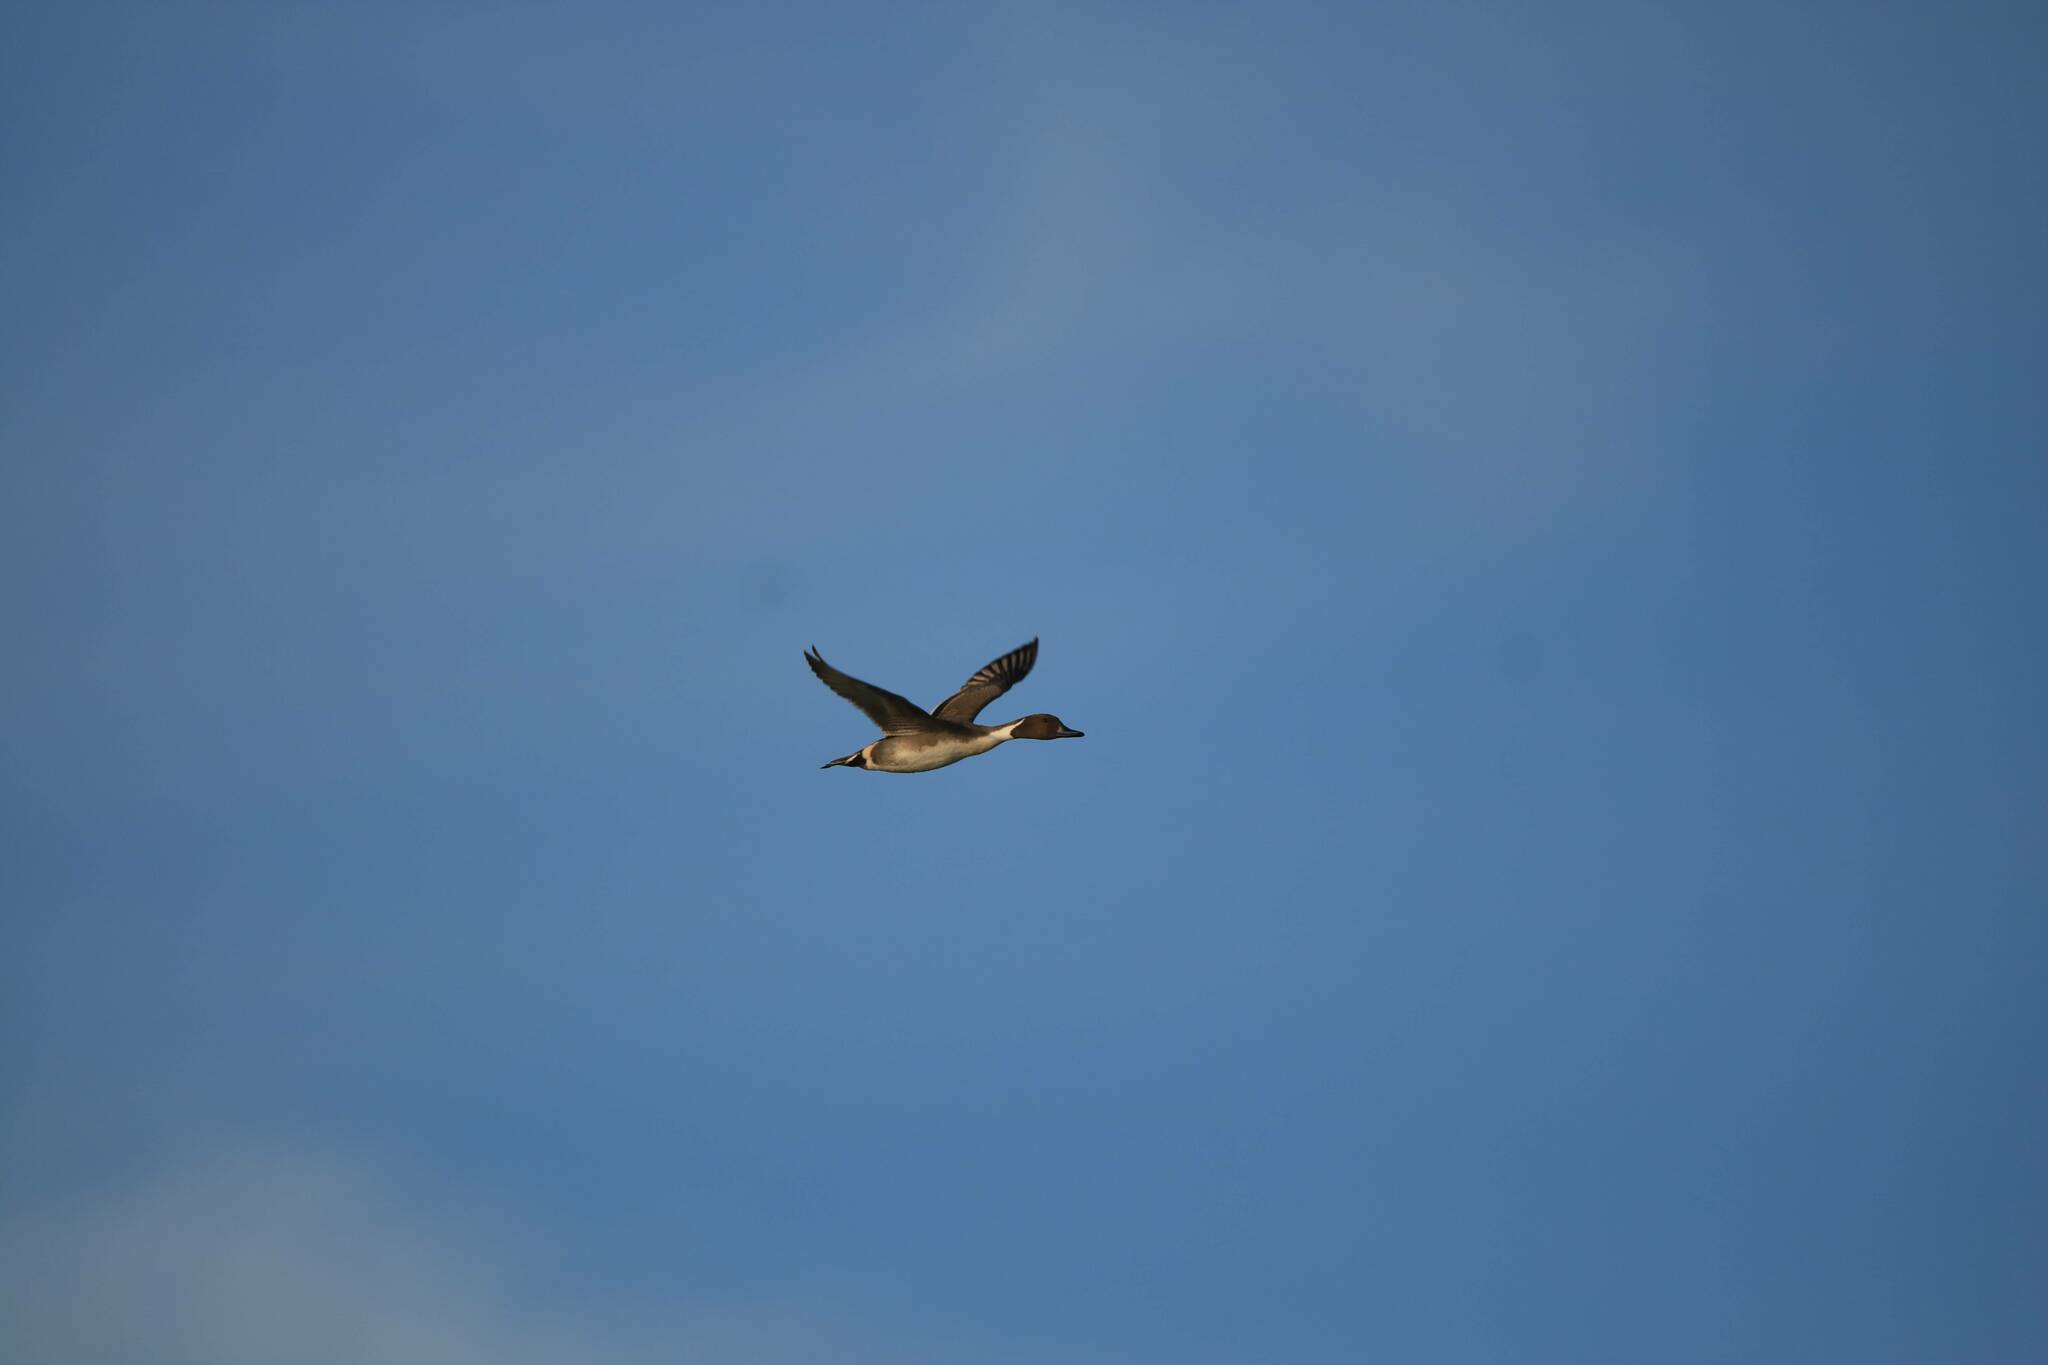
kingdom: Animalia
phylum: Chordata
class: Aves
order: Anseriformes
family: Anatidae
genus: Anas
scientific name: Anas acuta
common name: Northern pintail
